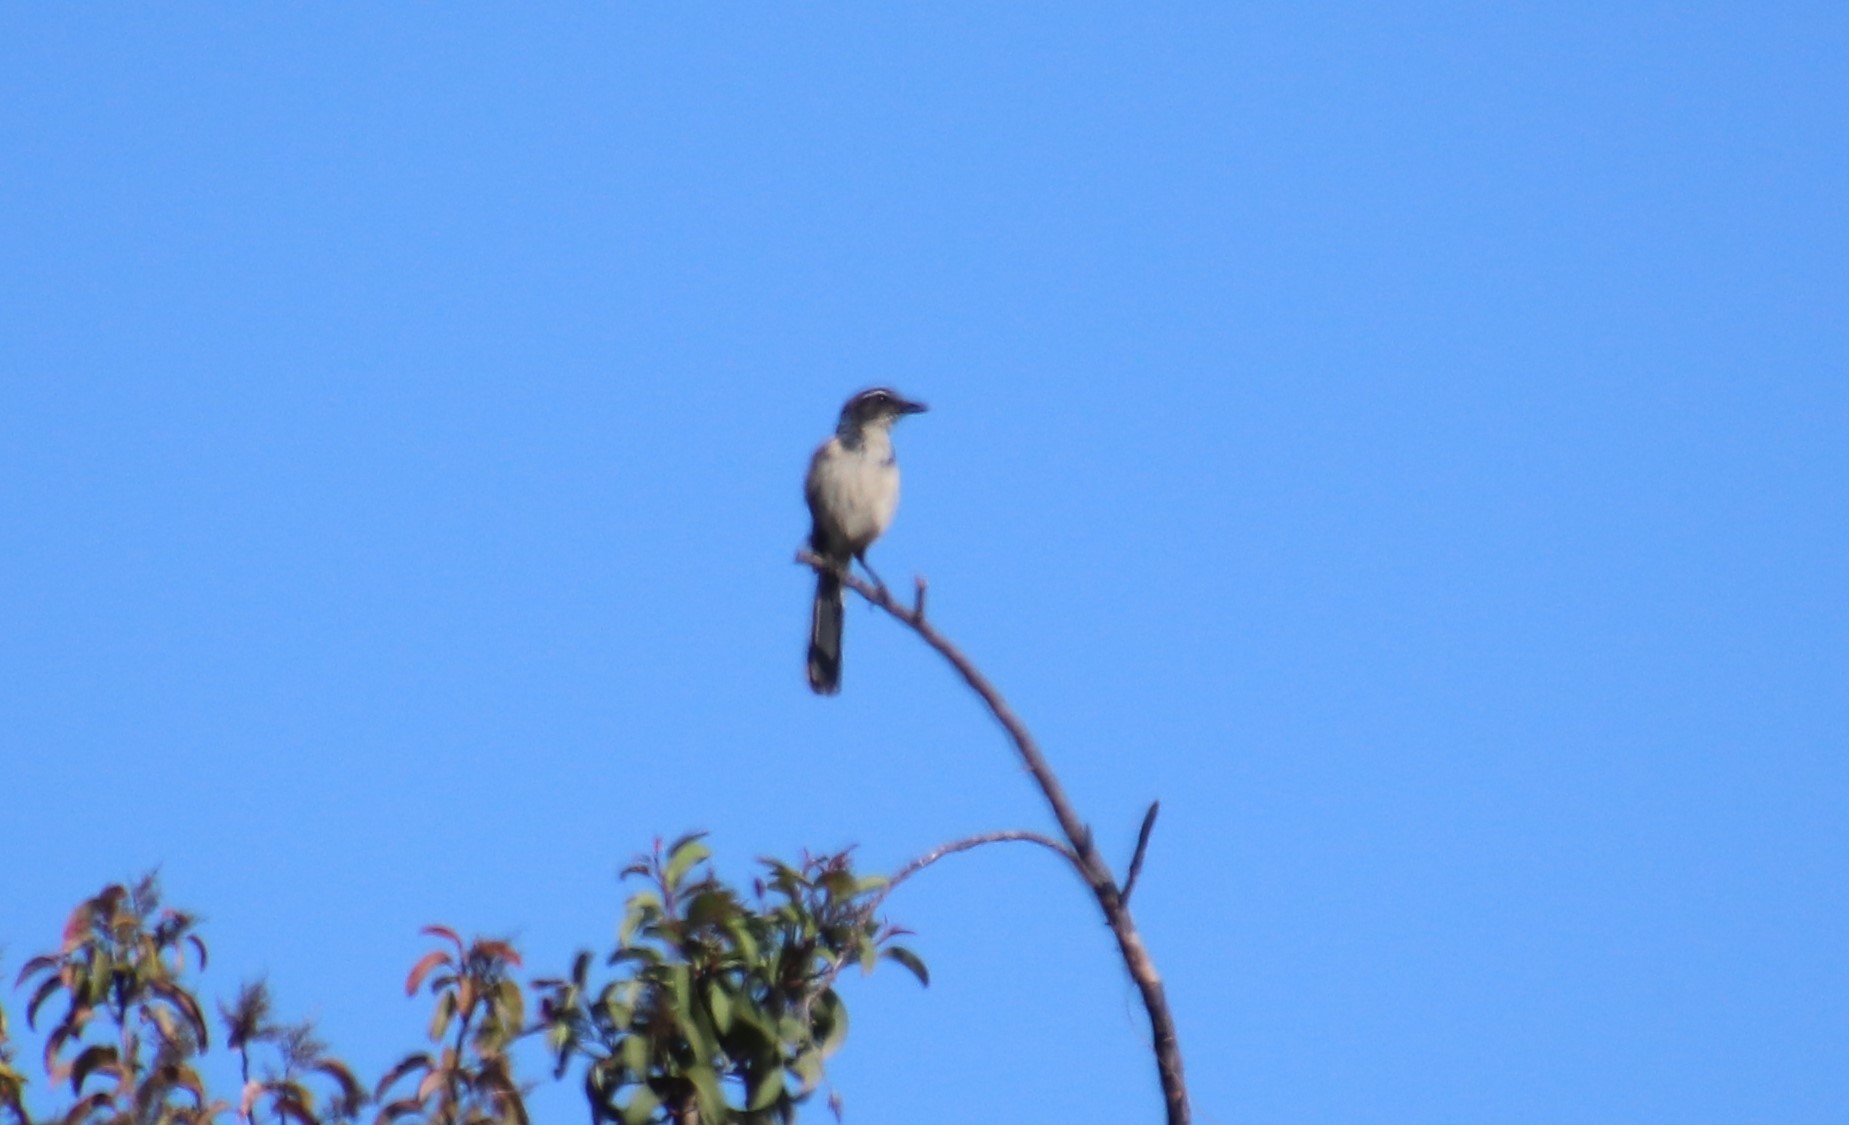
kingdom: Animalia
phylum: Chordata
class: Aves
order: Passeriformes
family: Corvidae
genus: Aphelocoma
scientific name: Aphelocoma californica
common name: California scrub-jay
